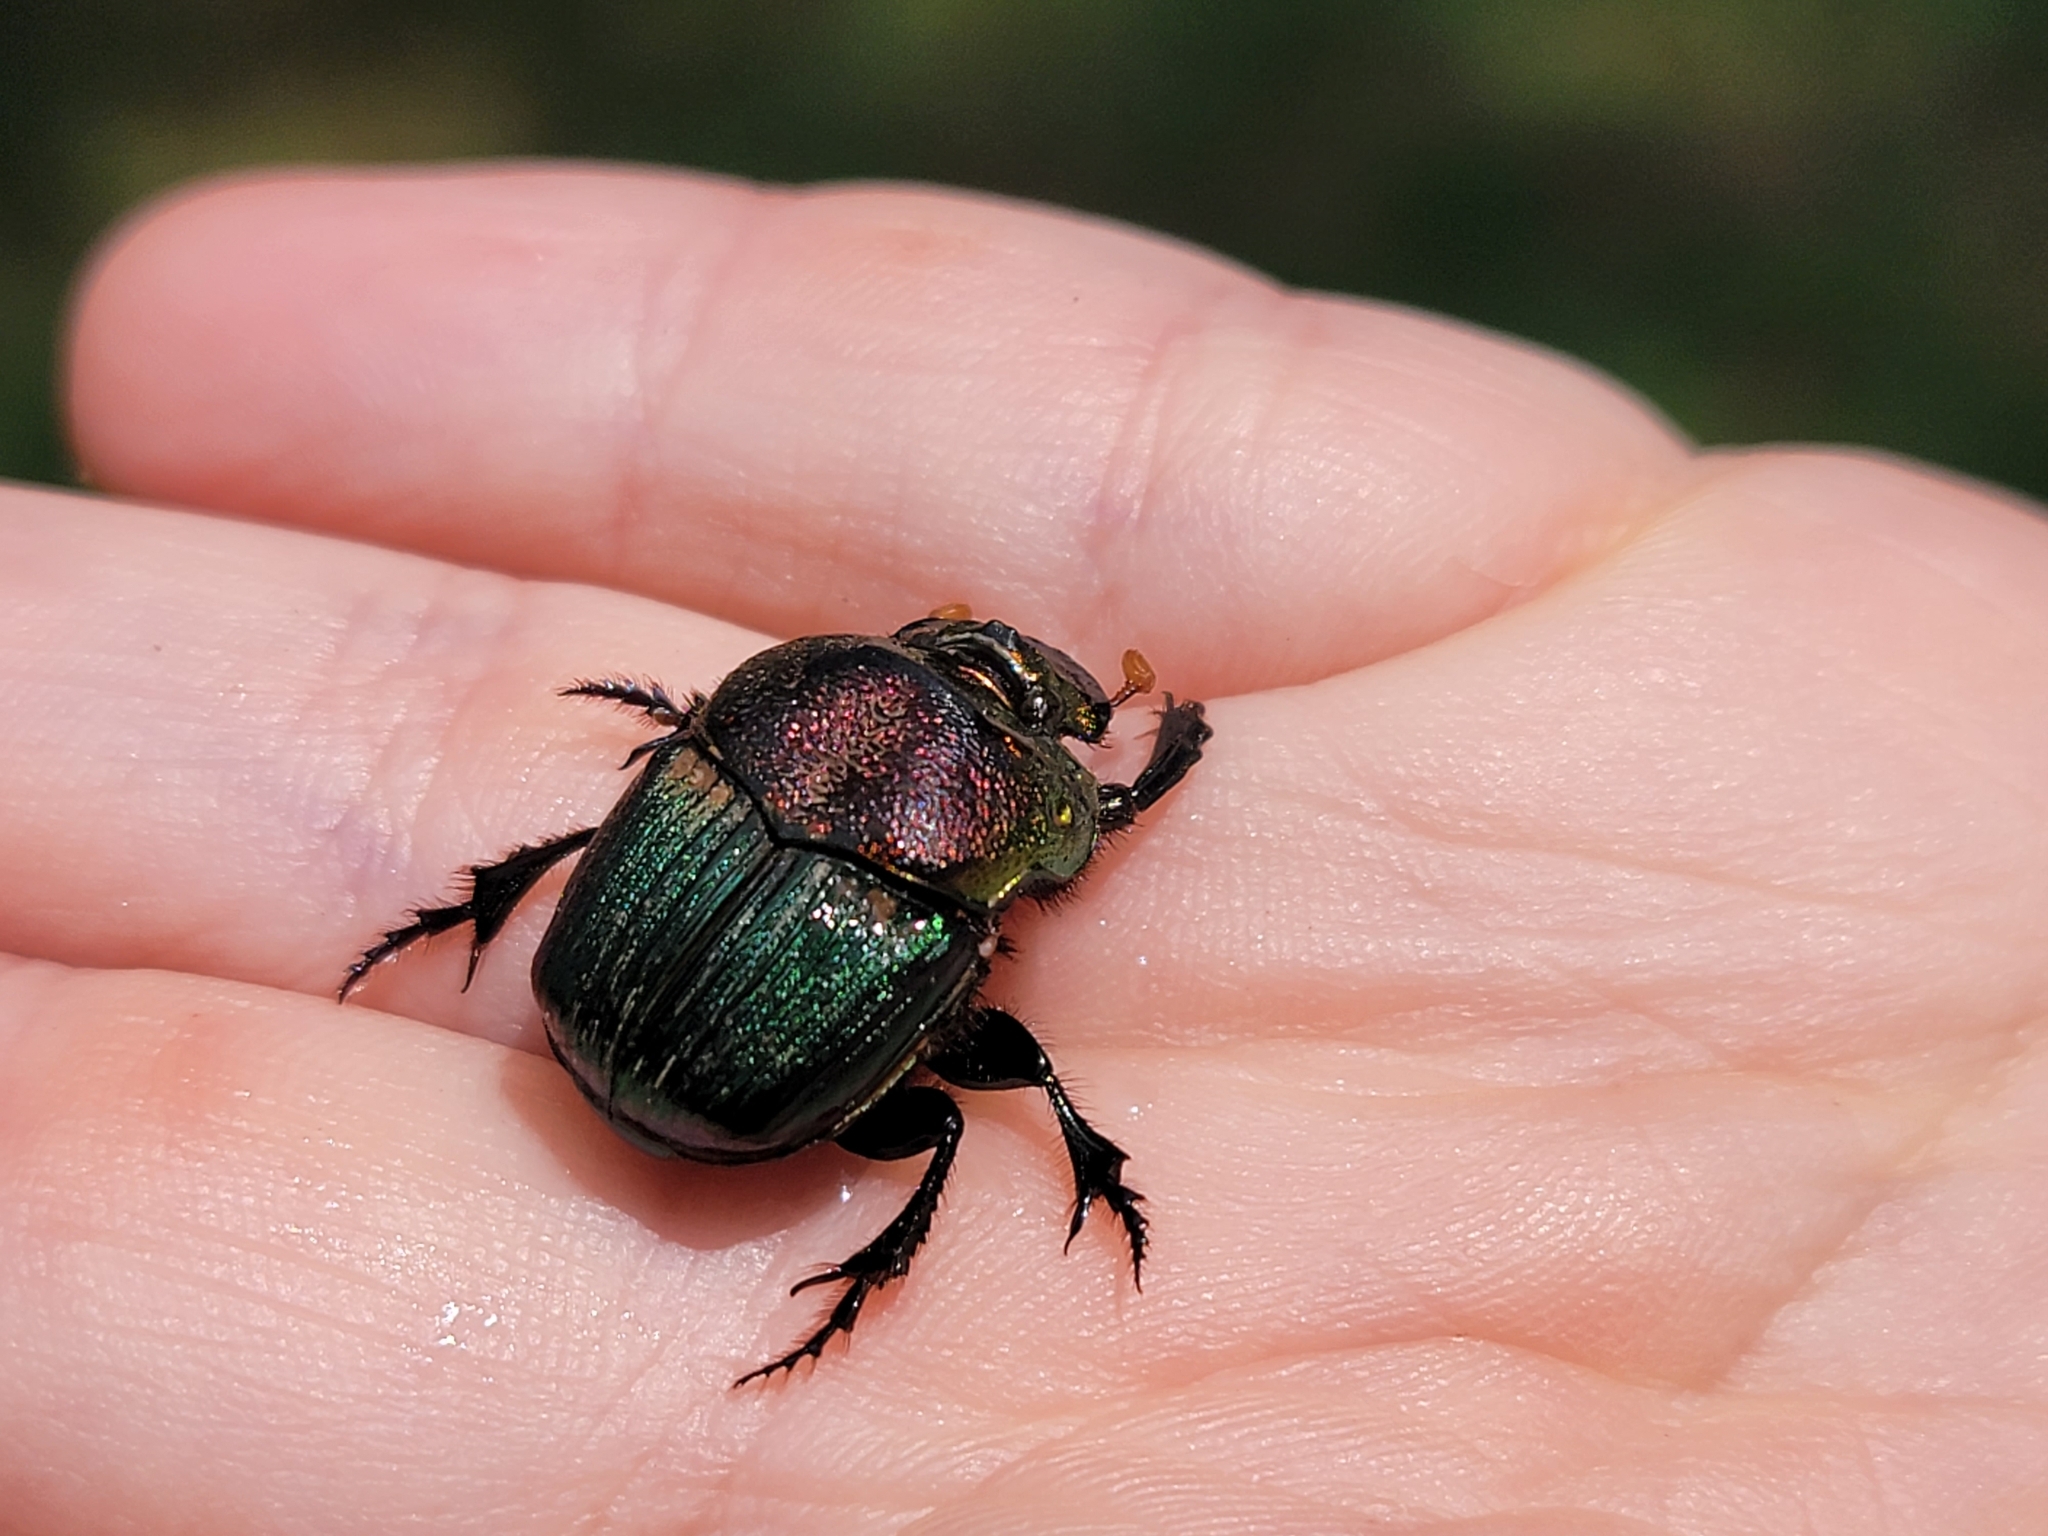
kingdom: Animalia
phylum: Arthropoda
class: Insecta
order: Coleoptera
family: Scarabaeidae
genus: Phanaeus
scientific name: Phanaeus vindex
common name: Rainbow scarab
